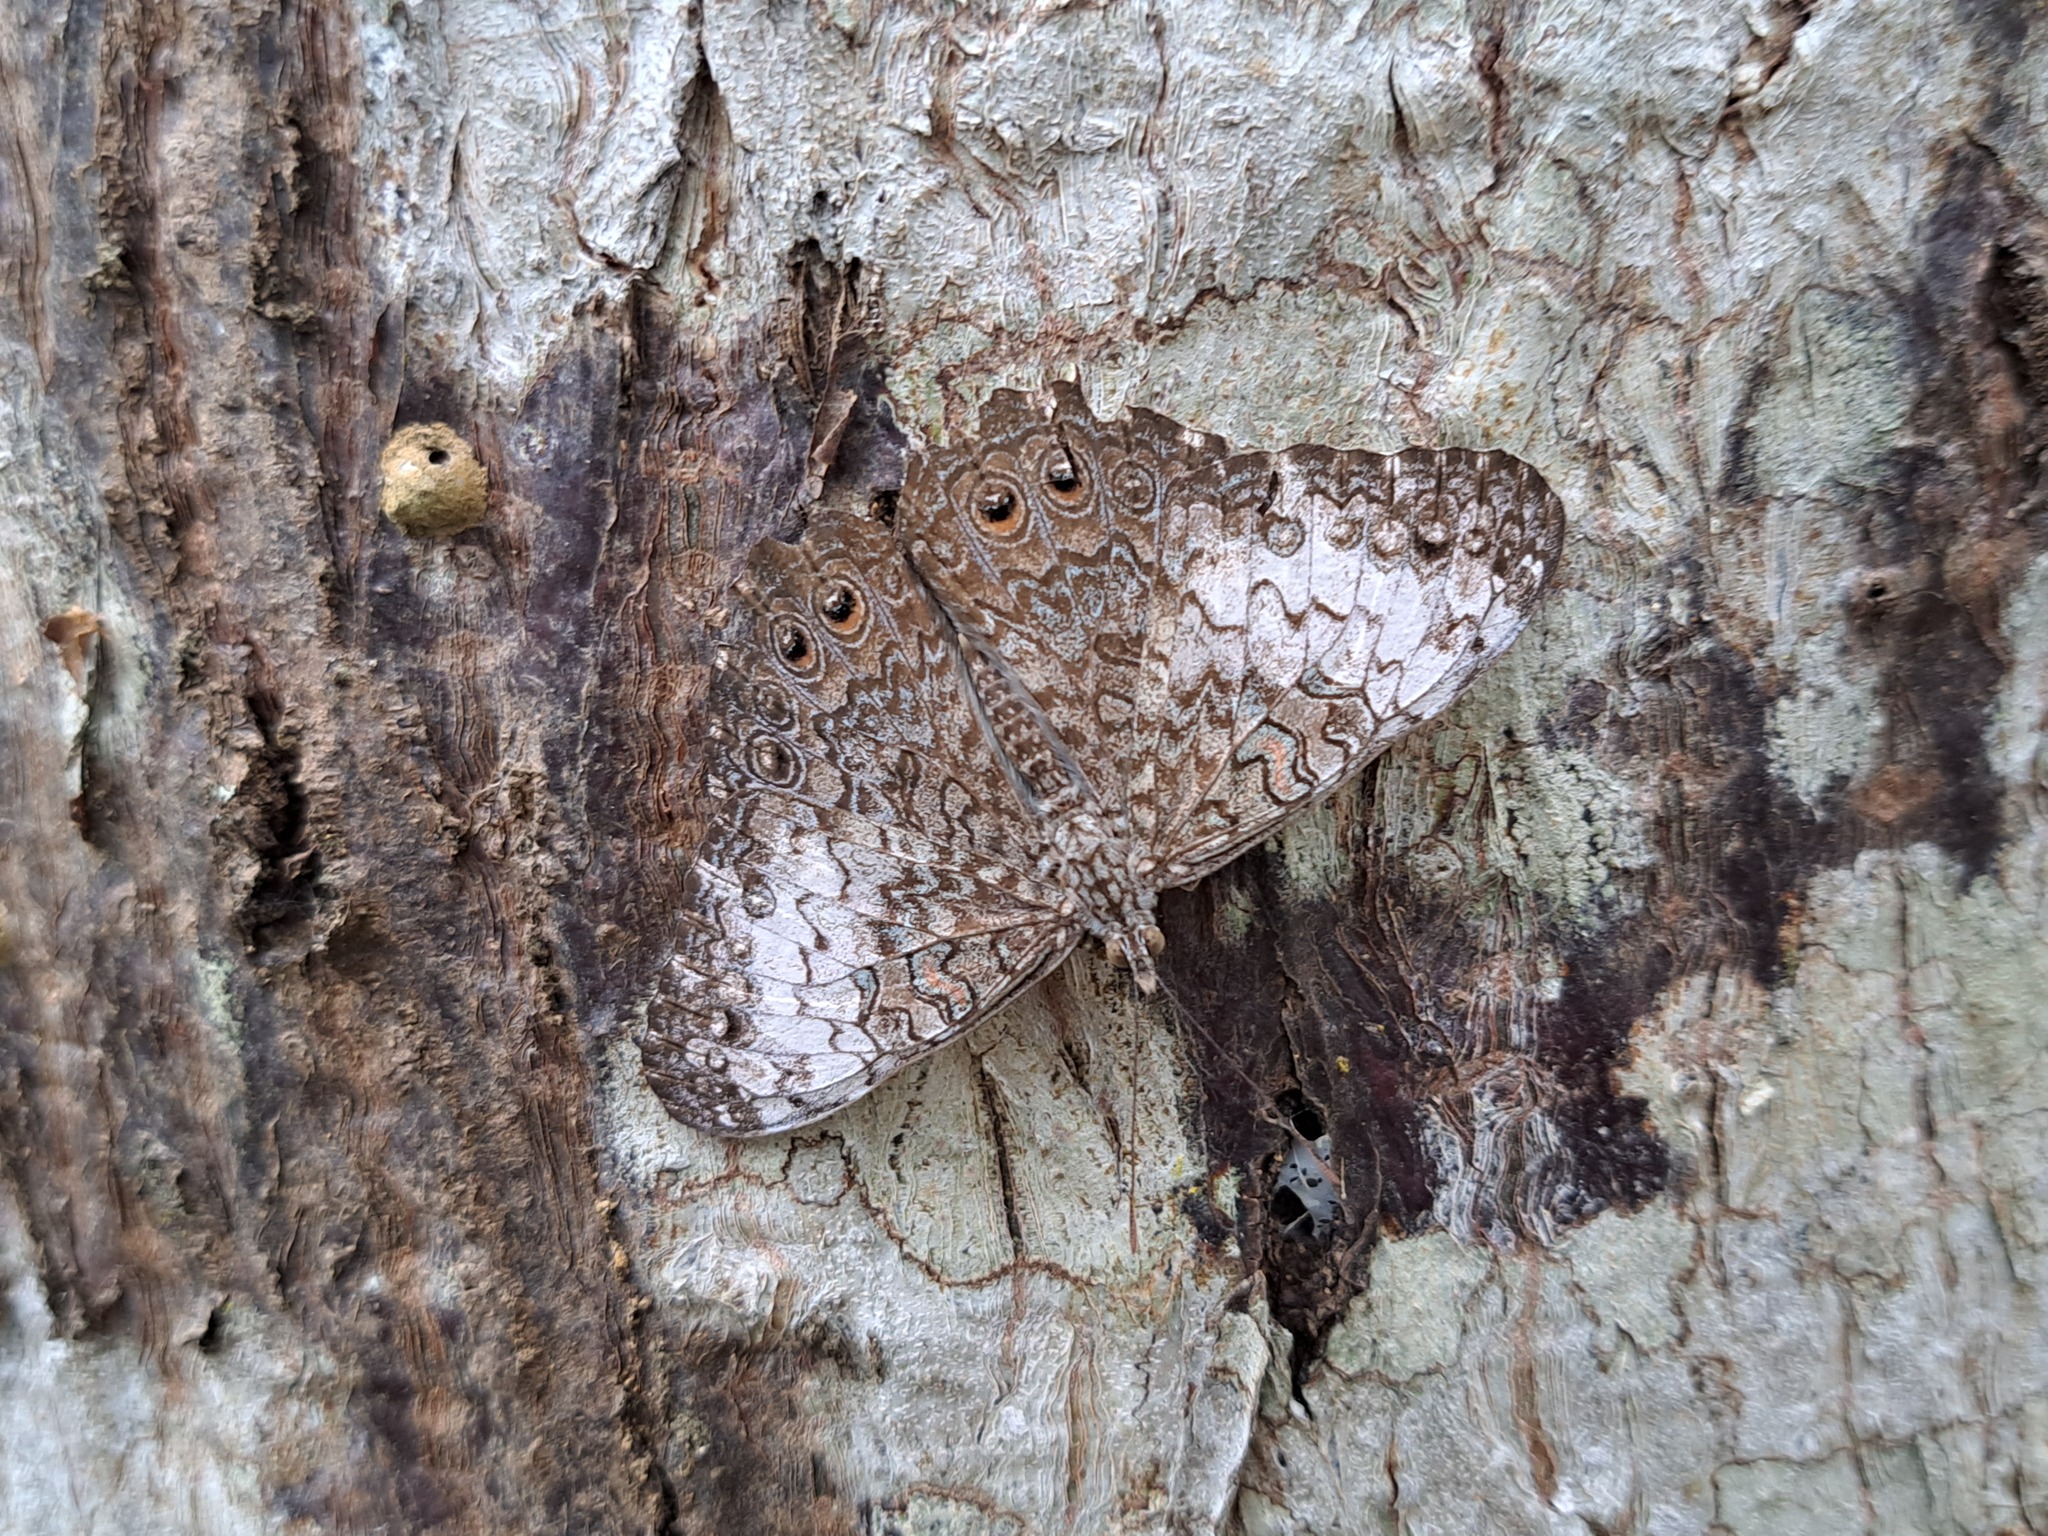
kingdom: Animalia
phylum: Arthropoda
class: Insecta
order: Lepidoptera
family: Nymphalidae
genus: Hamadryas
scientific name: Hamadryas februa
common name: Gray cracker
